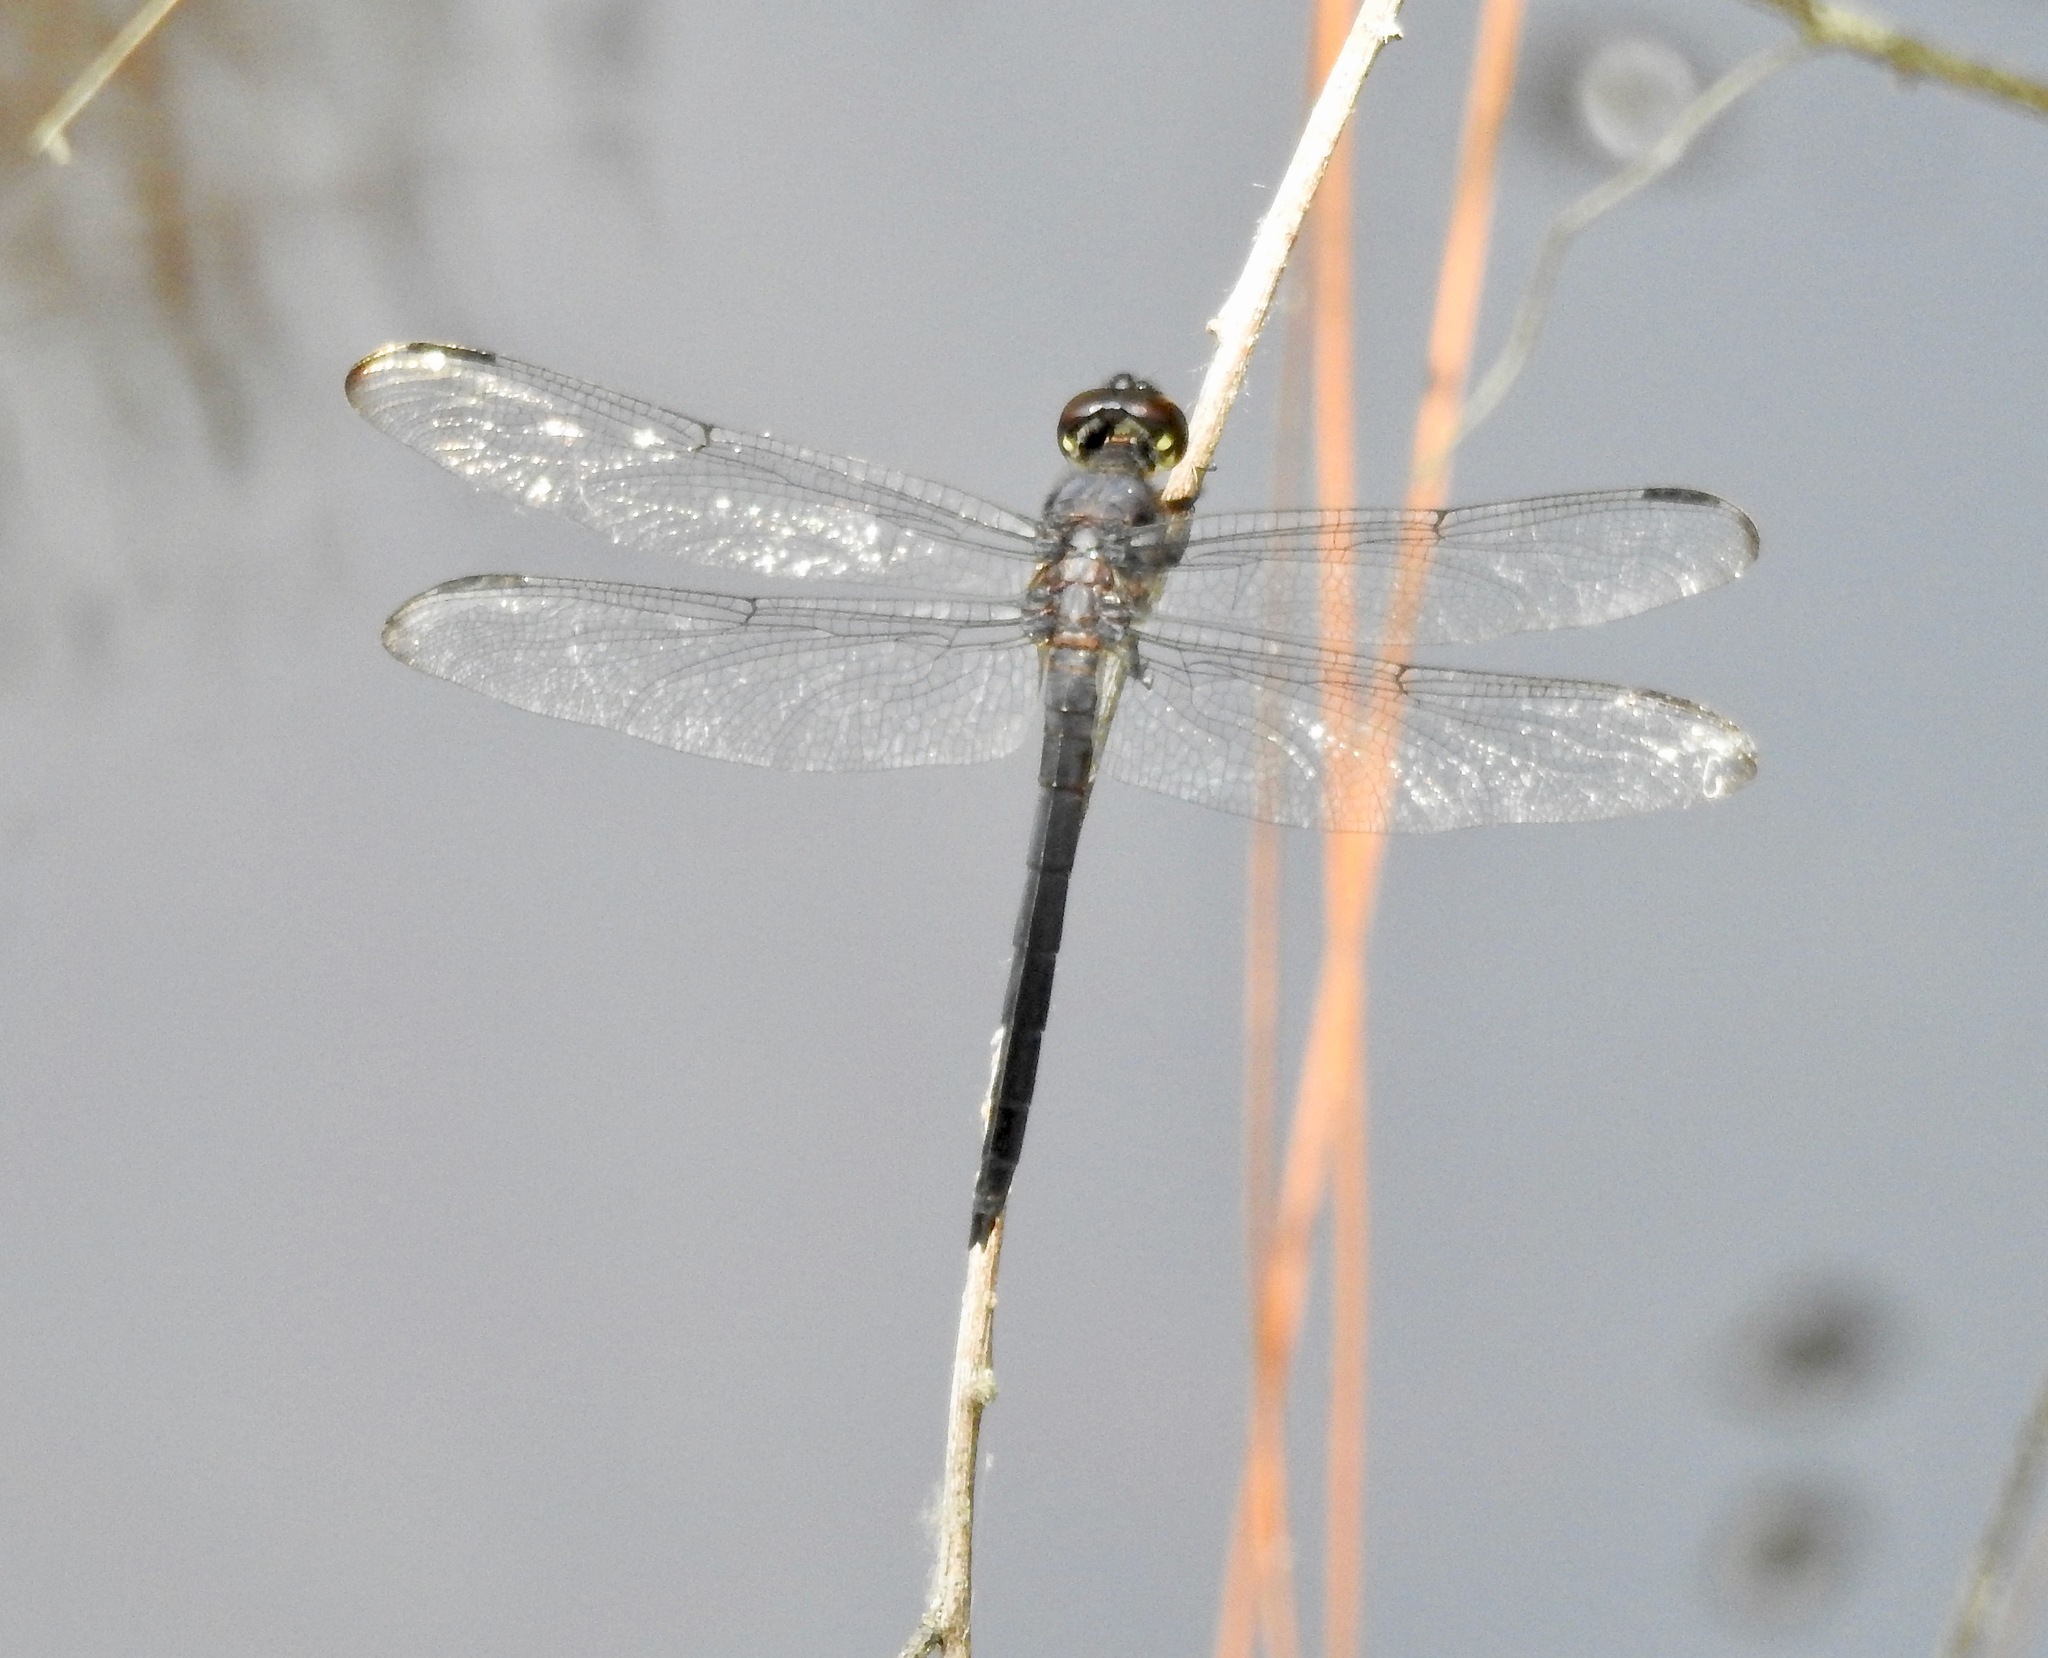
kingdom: Animalia
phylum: Arthropoda
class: Insecta
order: Odonata
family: Libellulidae
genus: Libellula
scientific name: Libellula incesta
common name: Slaty skimmer
